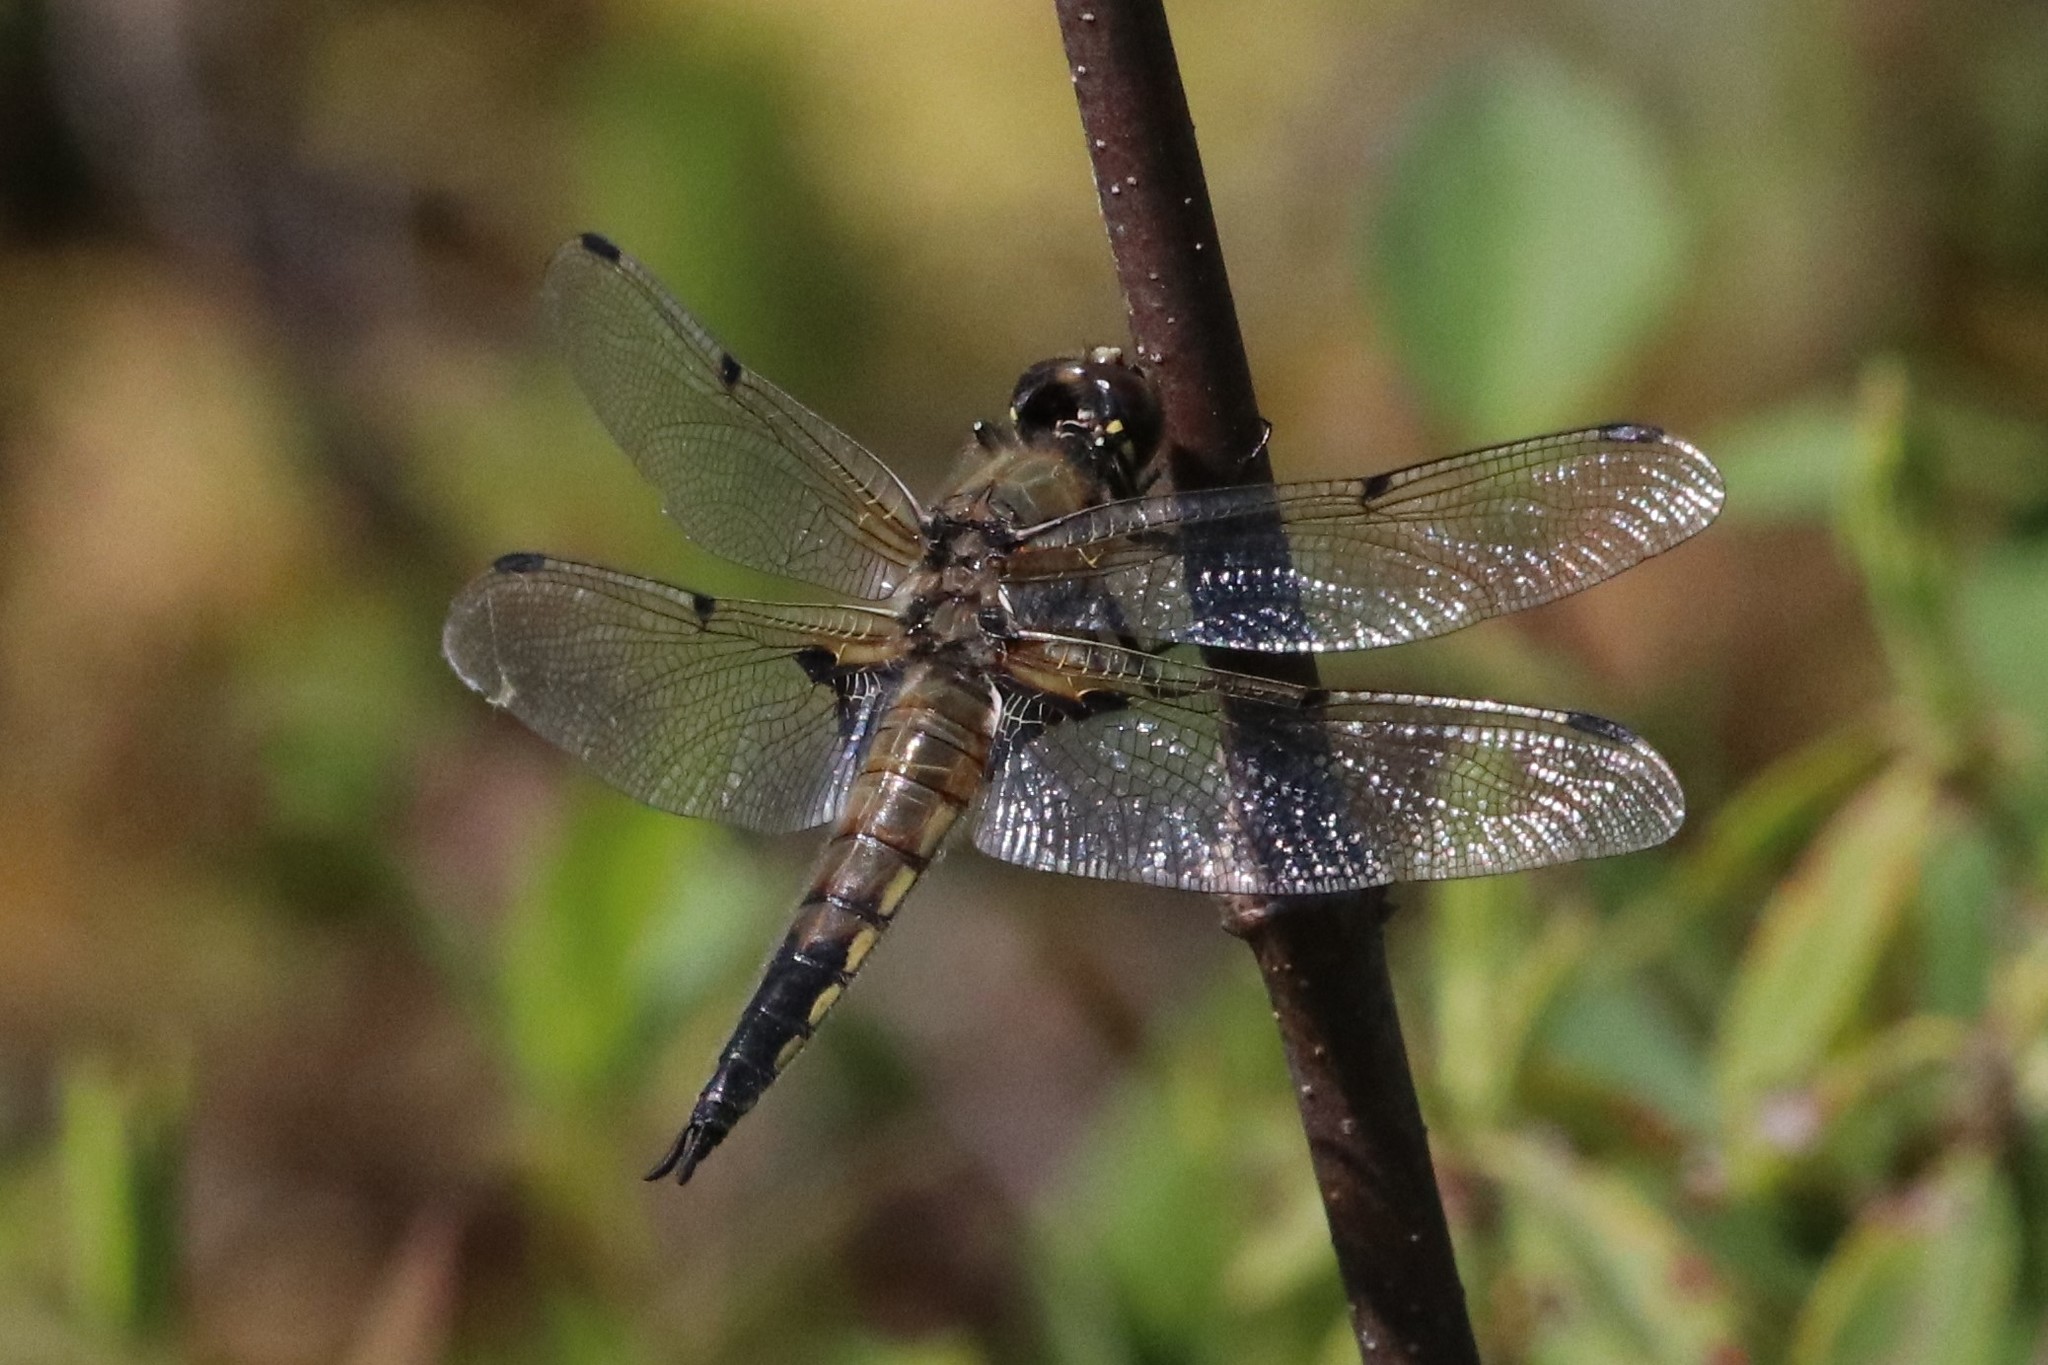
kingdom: Animalia
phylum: Arthropoda
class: Insecta
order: Odonata
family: Libellulidae
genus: Libellula
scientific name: Libellula quadrimaculata
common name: Four-spotted chaser
